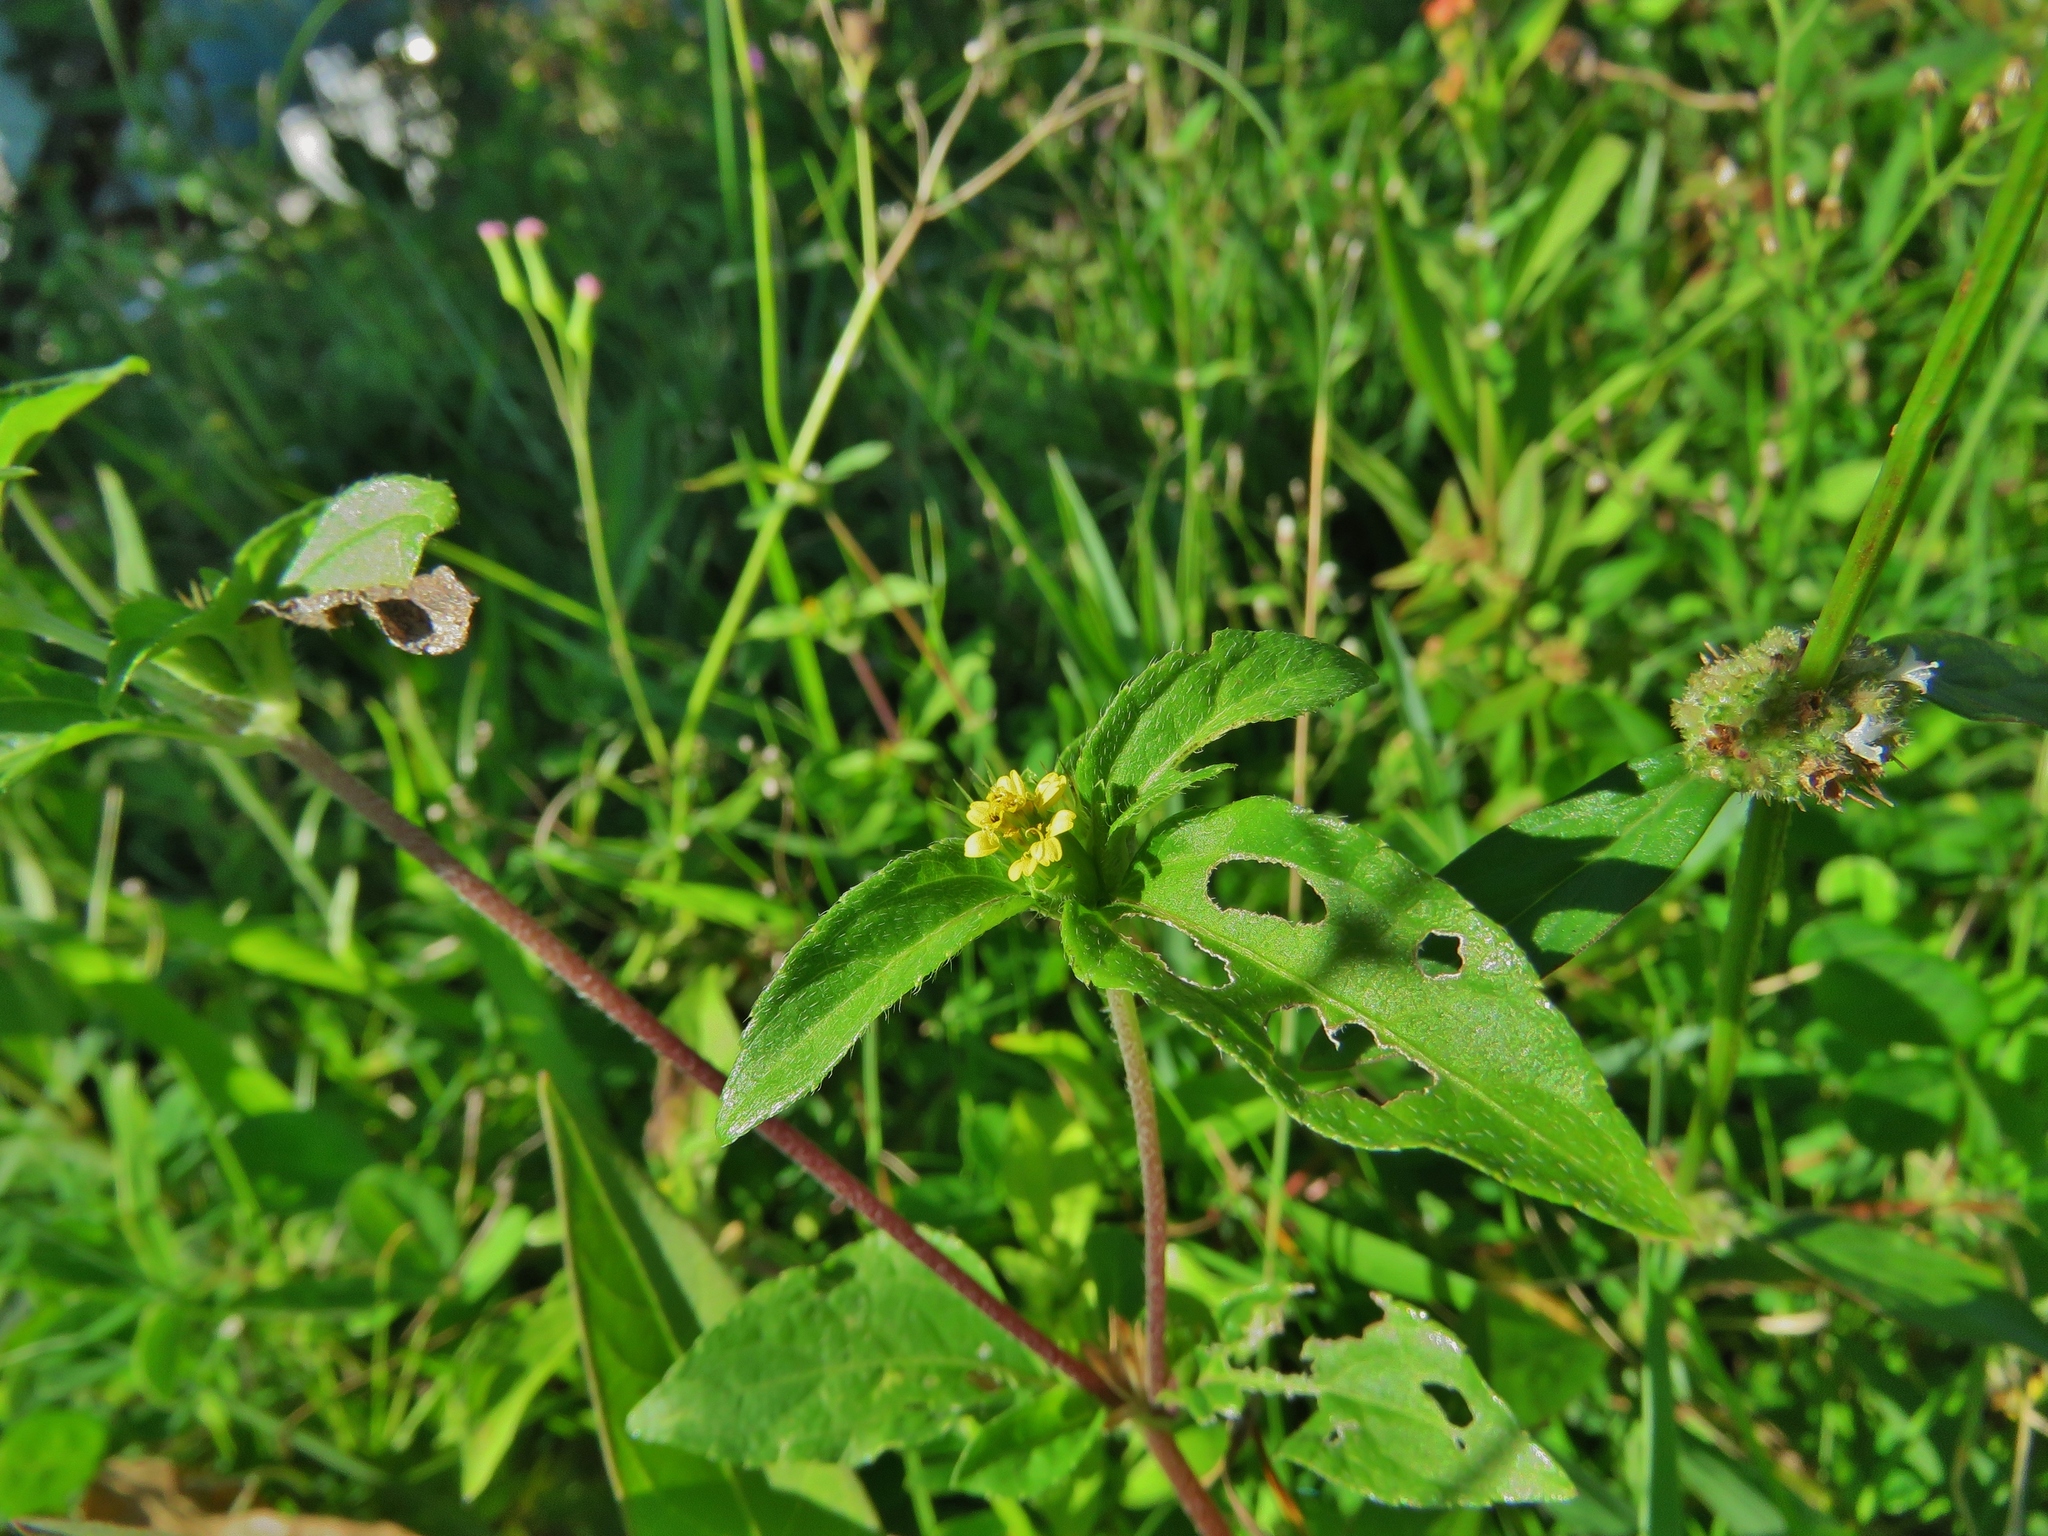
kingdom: Plantae
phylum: Tracheophyta
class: Magnoliopsida
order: Asterales
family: Asteraceae
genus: Synedrella
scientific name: Synedrella nodiflora
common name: Nodeweed
